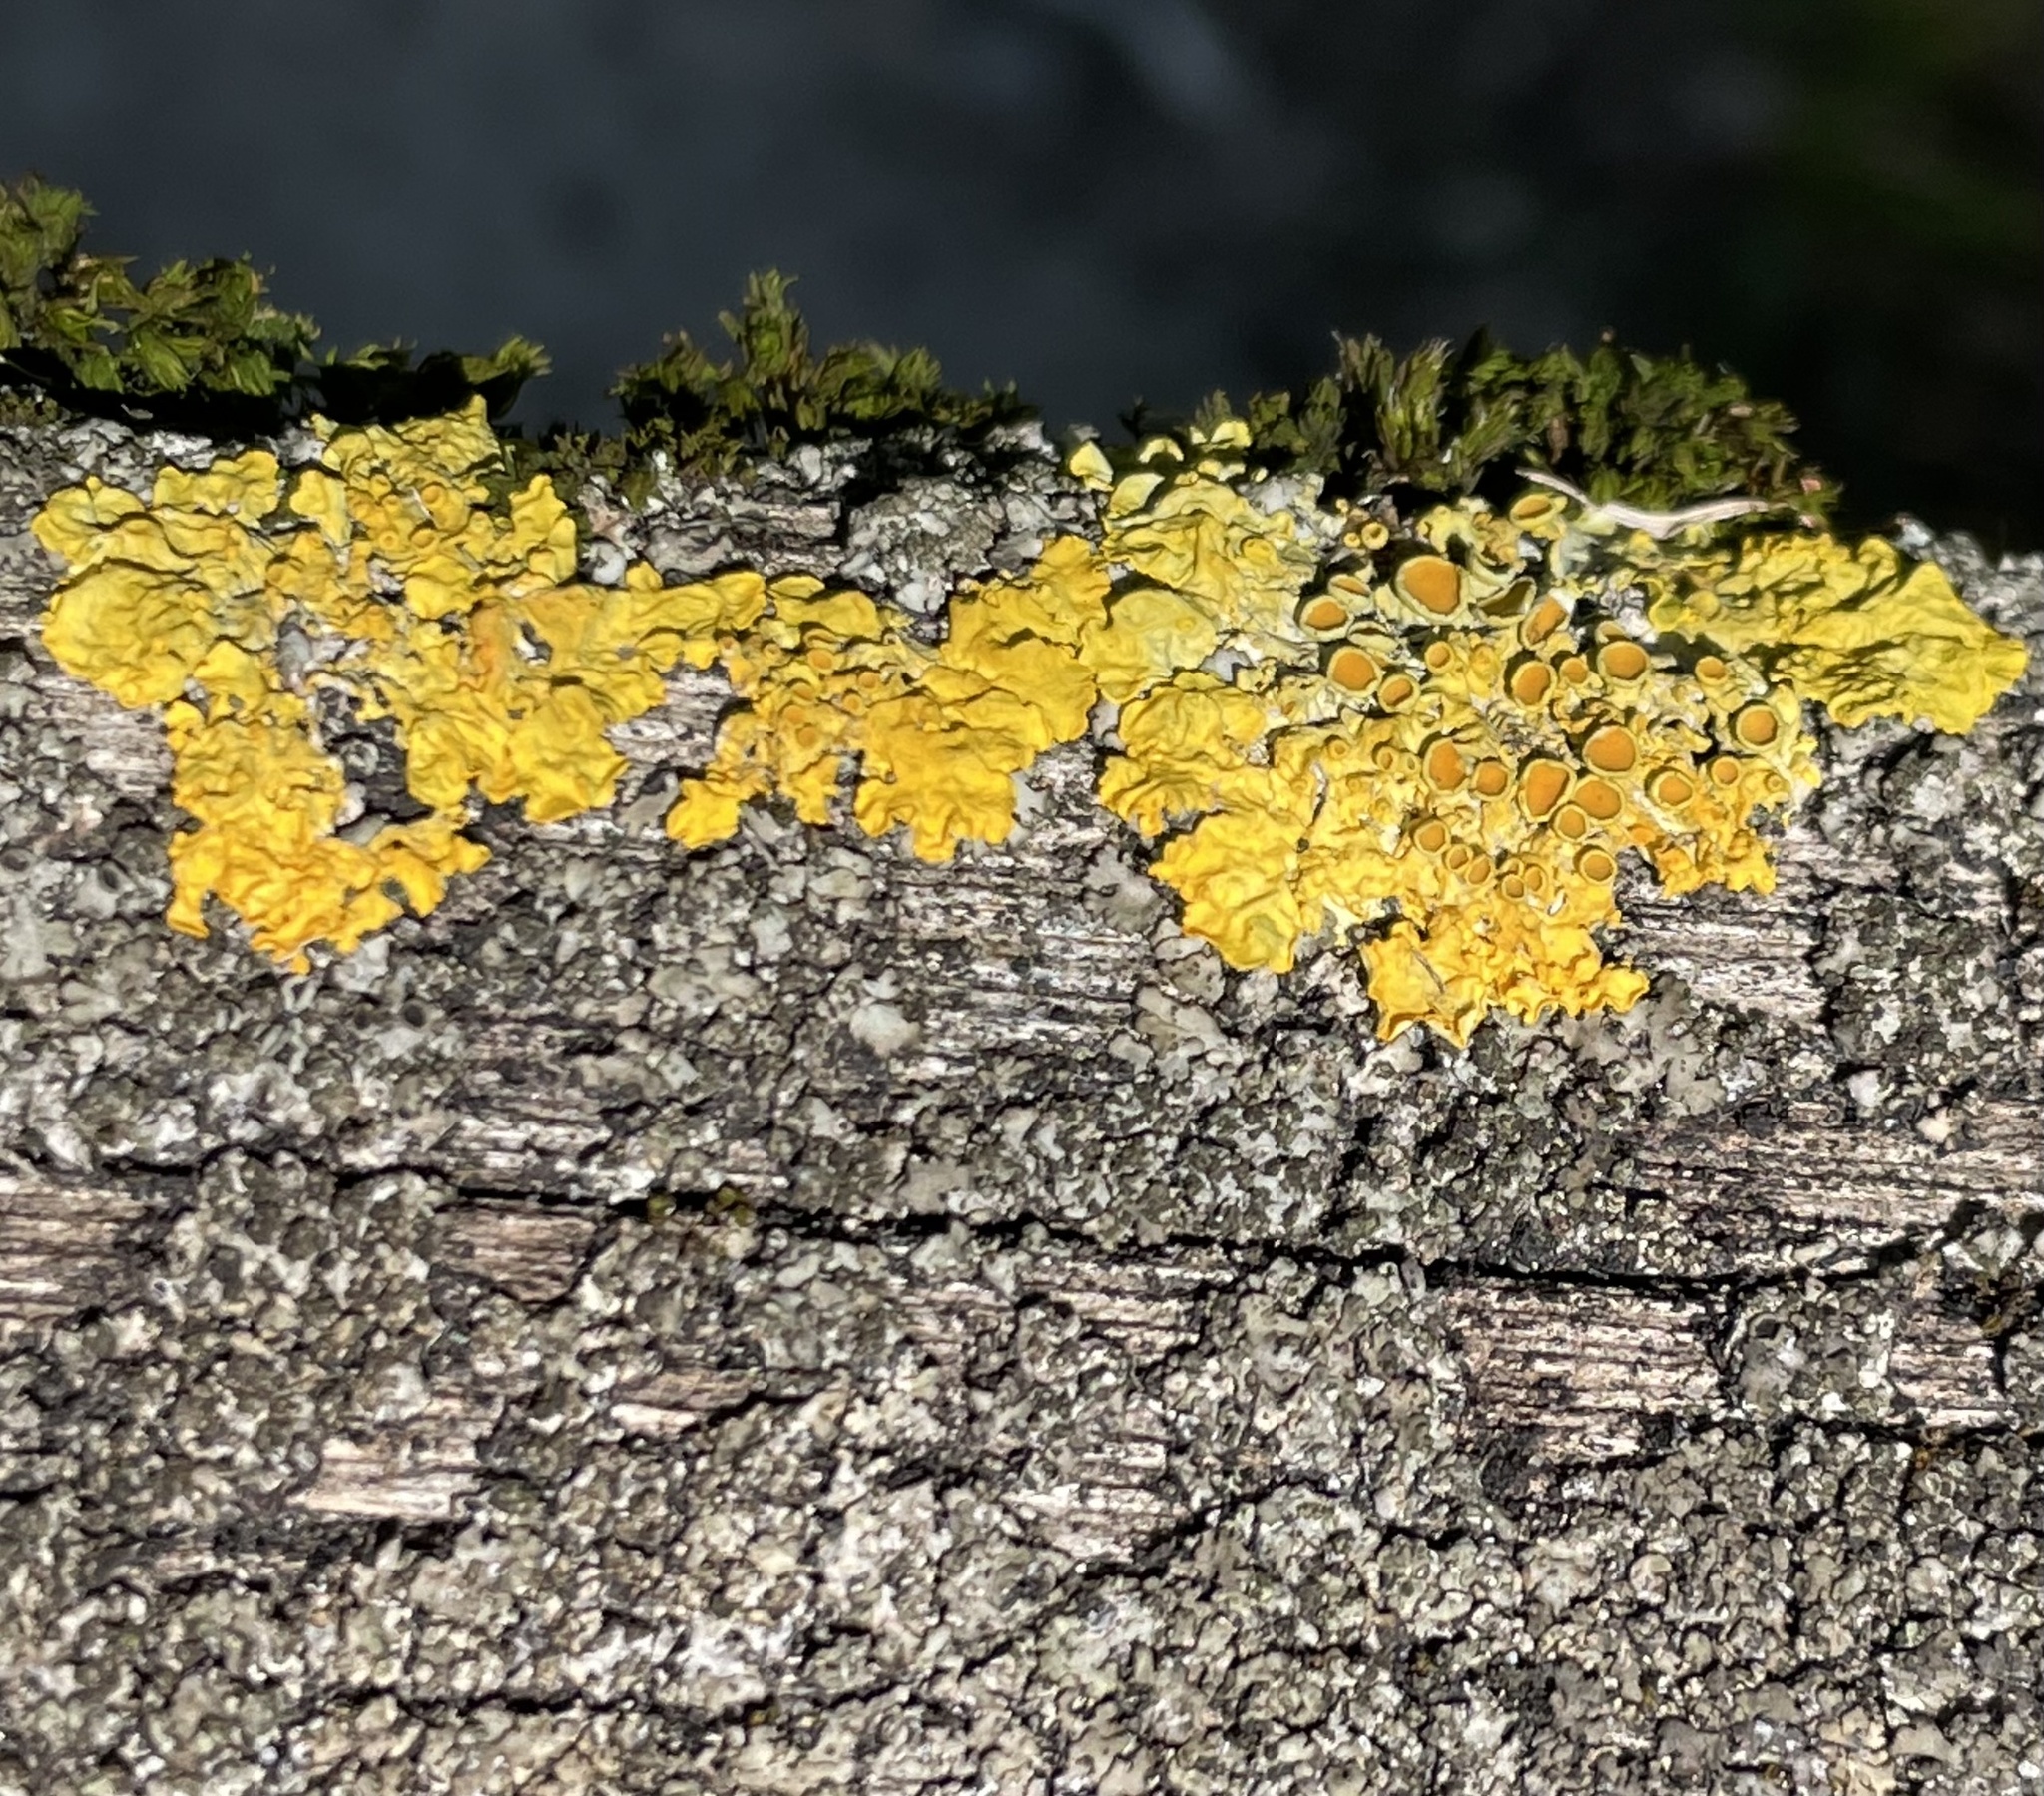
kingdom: Fungi
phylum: Ascomycota
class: Lecanoromycetes
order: Teloschistales
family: Teloschistaceae
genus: Xanthoria
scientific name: Xanthoria parietina
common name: Common orange lichen
